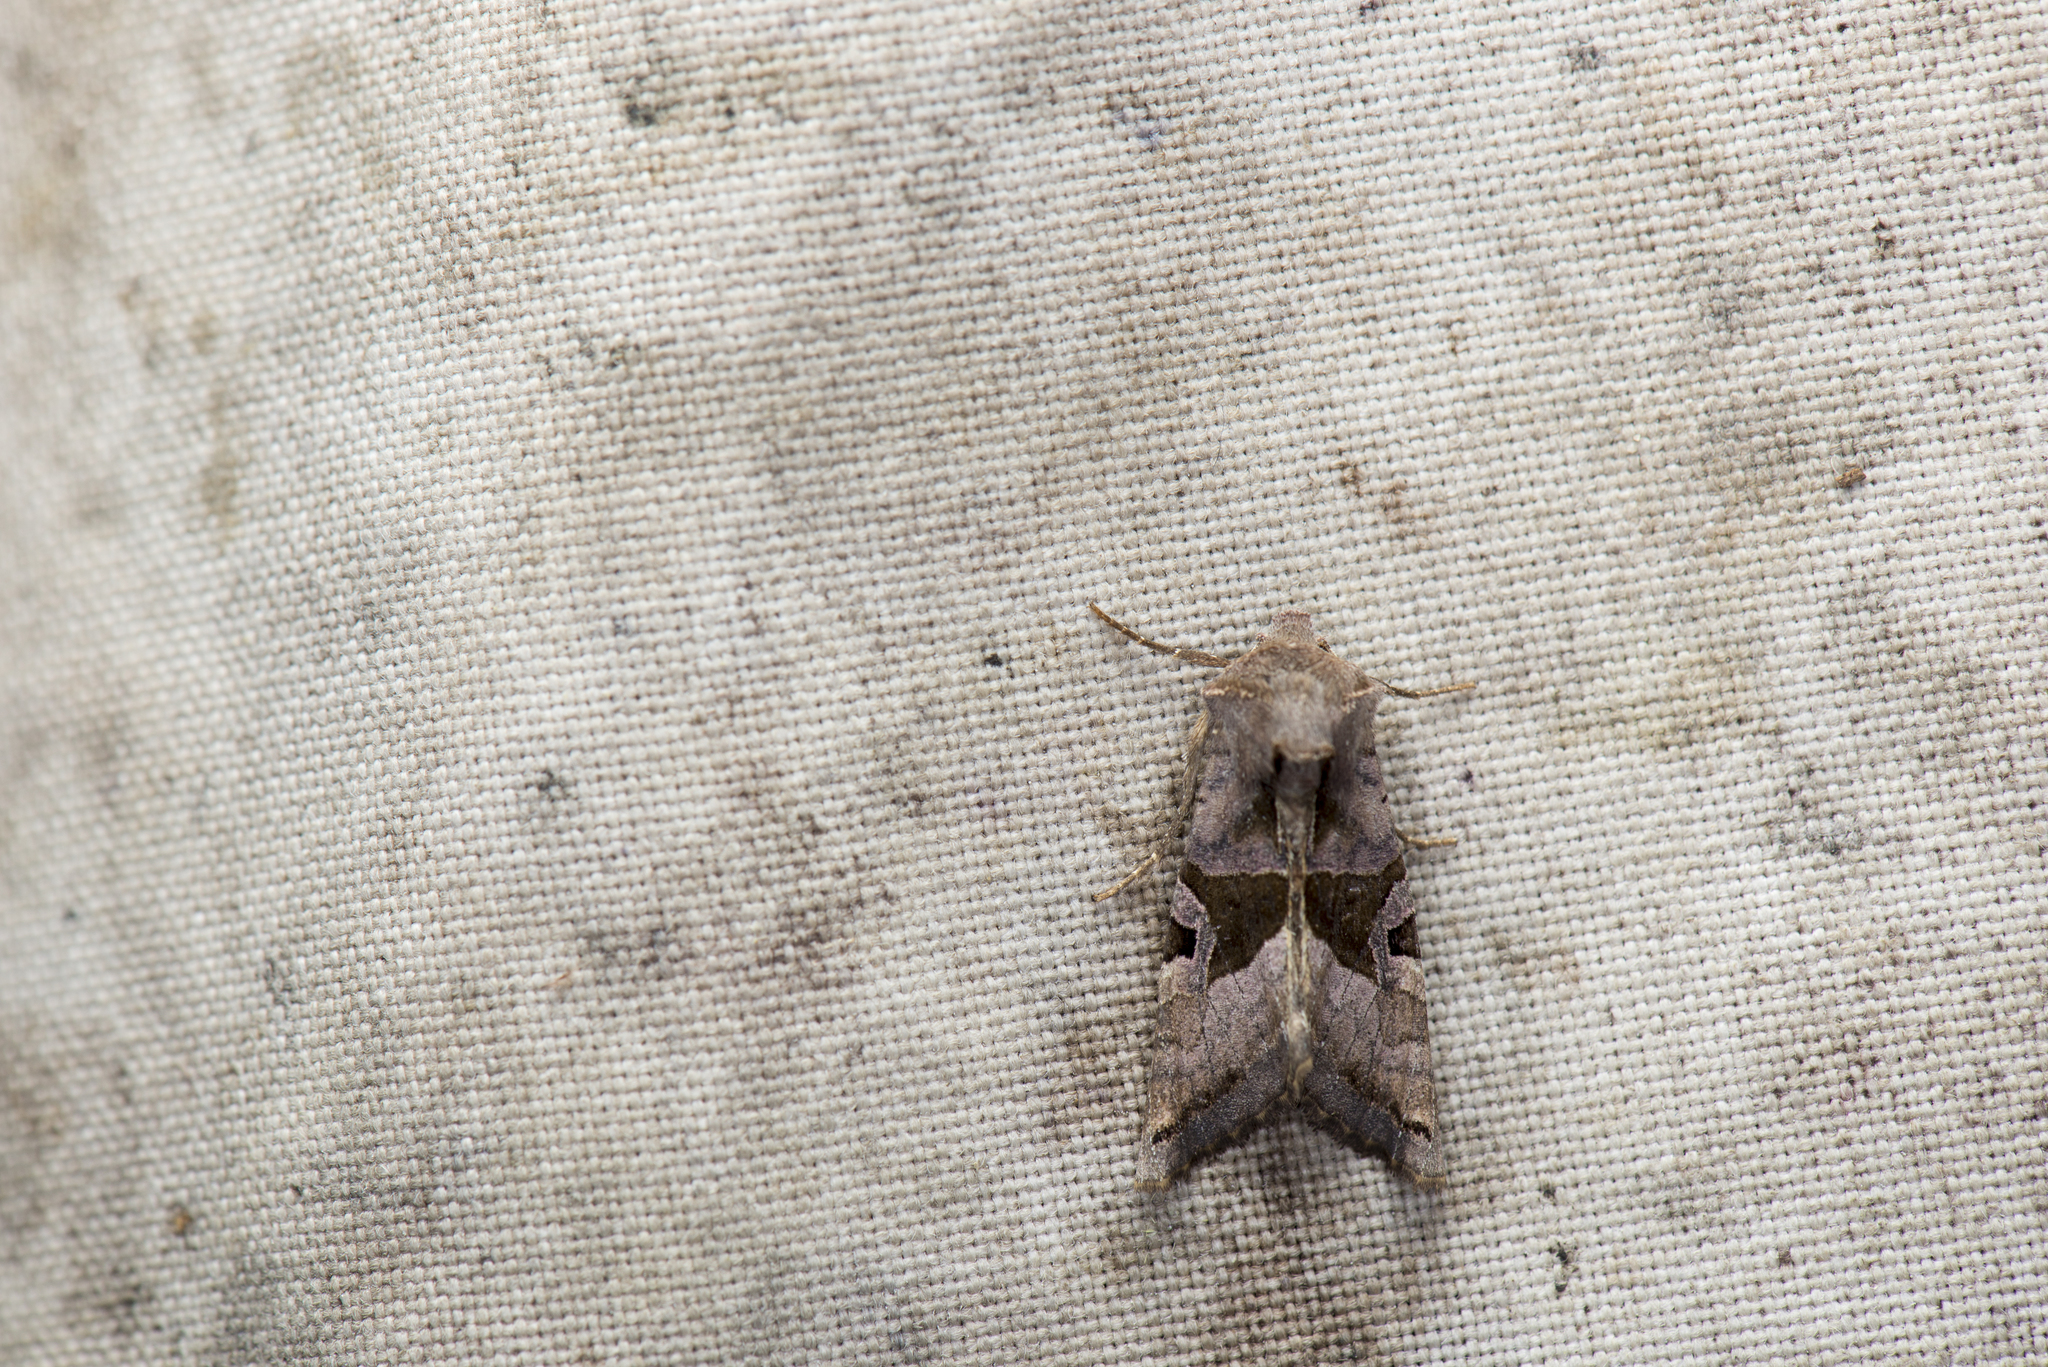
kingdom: Animalia
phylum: Arthropoda
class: Insecta
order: Lepidoptera
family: Noctuidae
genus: Phlogophora
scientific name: Phlogophora insularis
